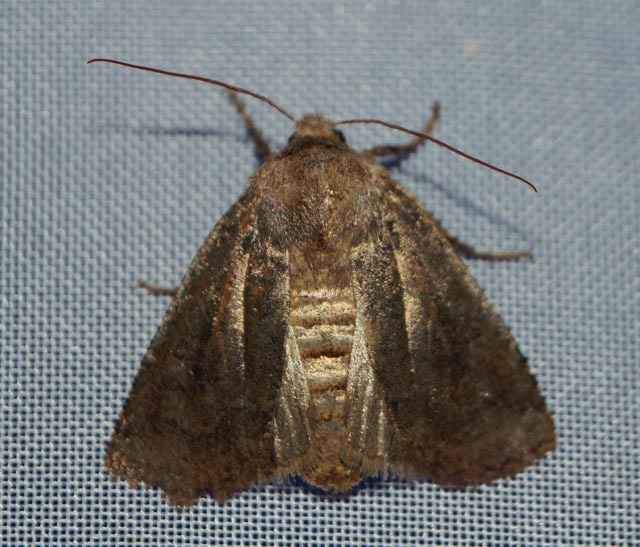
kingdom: Animalia
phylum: Arthropoda
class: Insecta
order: Lepidoptera
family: Noctuidae
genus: Conistra
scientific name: Conistra vaccinii
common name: Chestnut
